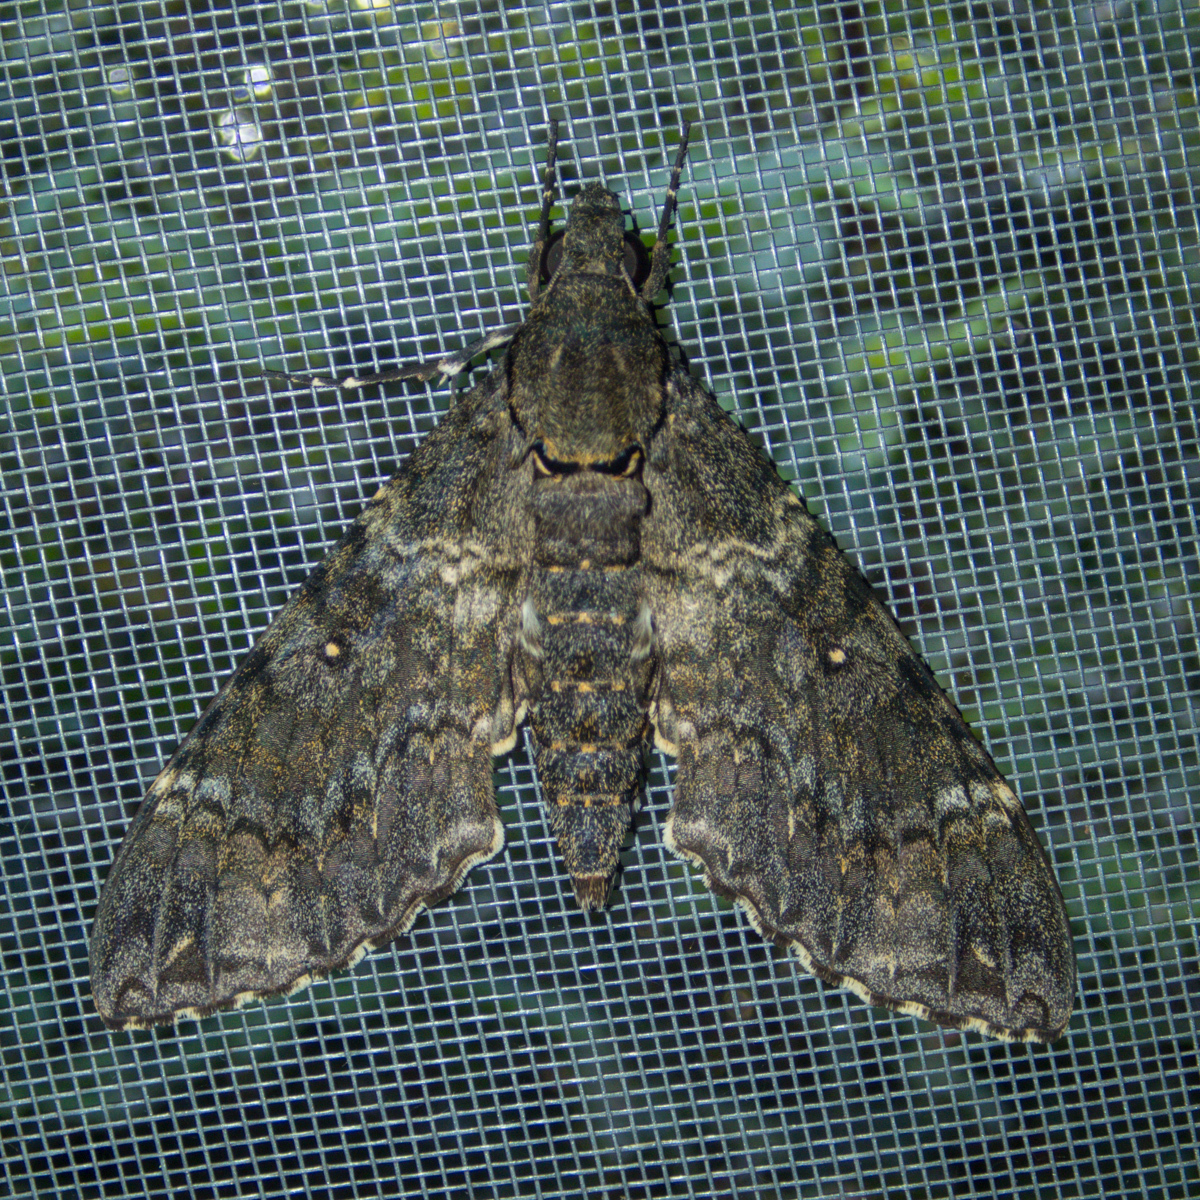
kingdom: Animalia
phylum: Arthropoda
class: Insecta
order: Lepidoptera
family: Sphingidae
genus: Meganoton
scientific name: Meganoton nyctiphanes
